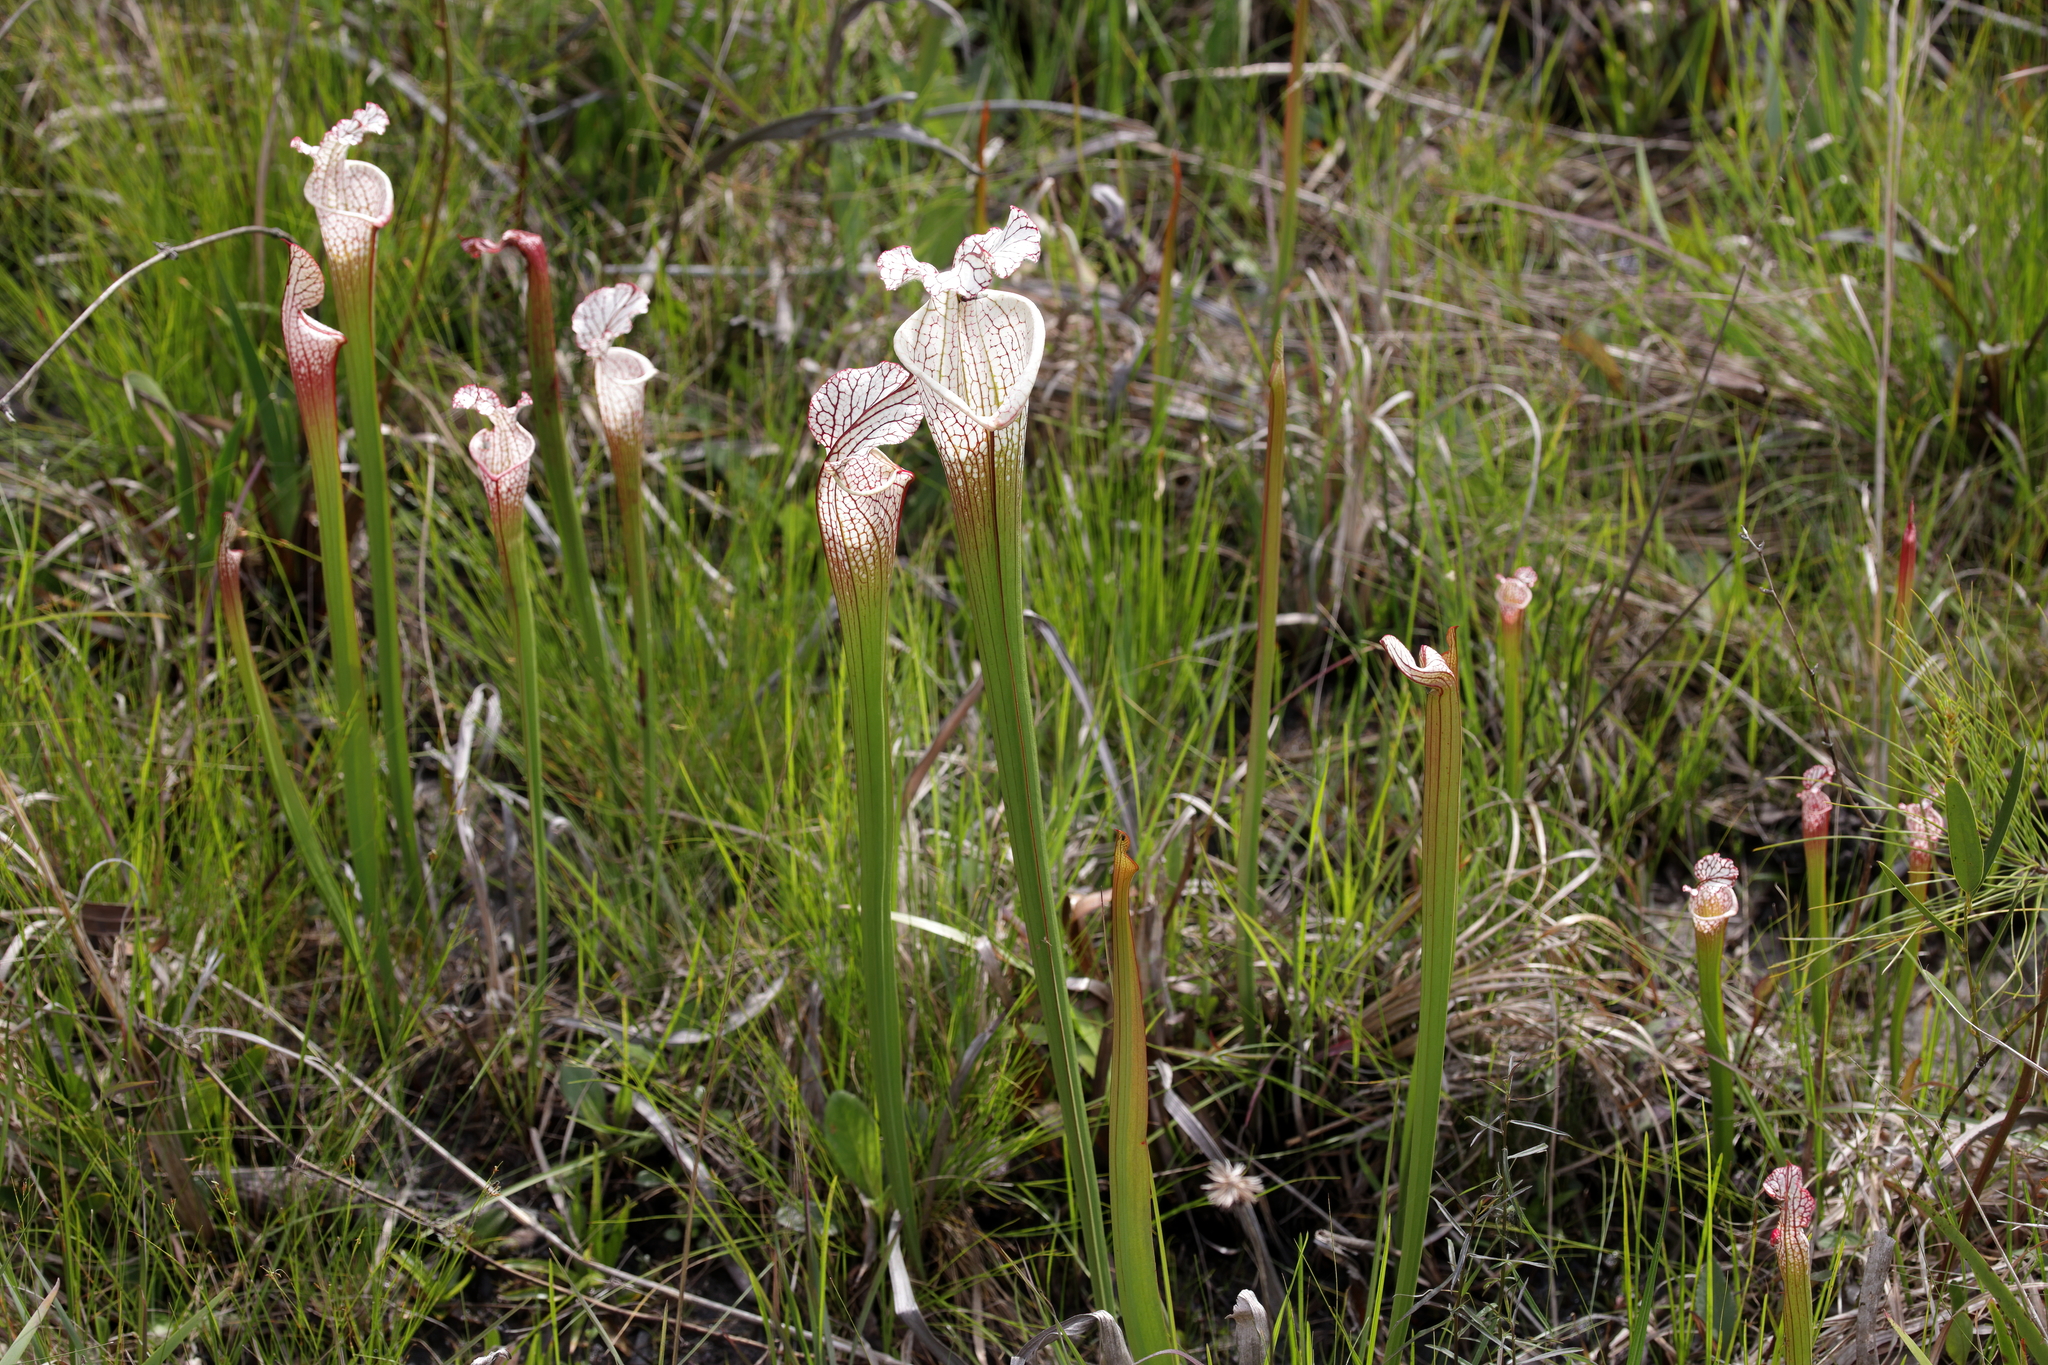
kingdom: Plantae
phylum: Tracheophyta
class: Magnoliopsida
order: Ericales
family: Sarraceniaceae
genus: Sarracenia
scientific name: Sarracenia leucophylla
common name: Purple trumpetleaf
